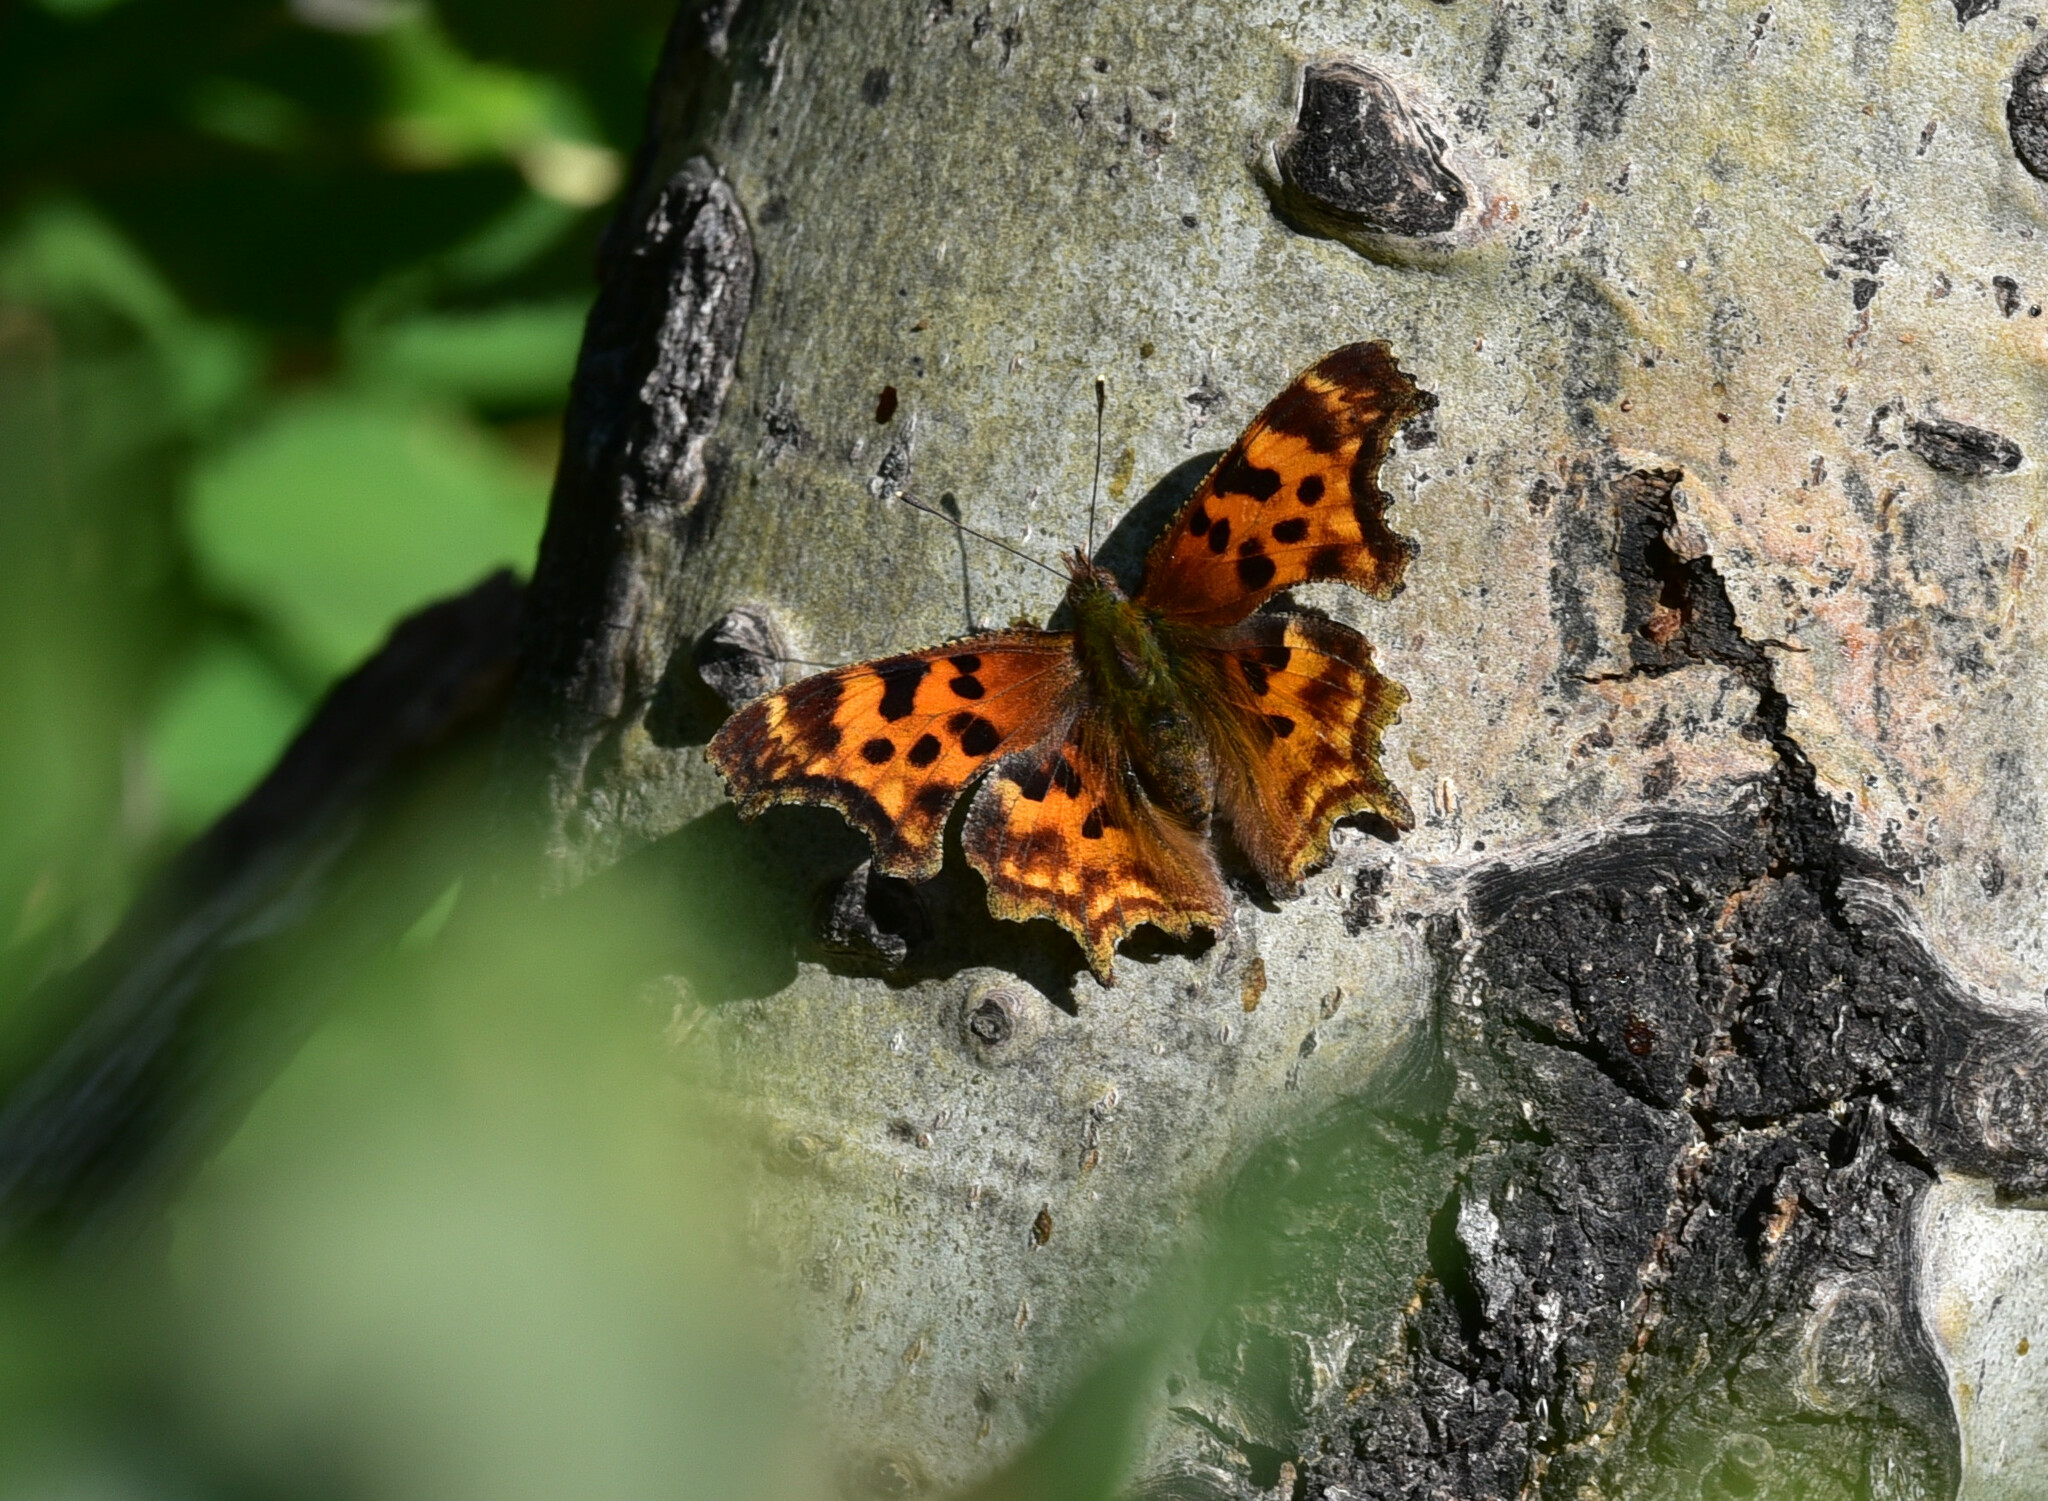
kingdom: Animalia
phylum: Arthropoda
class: Insecta
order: Lepidoptera
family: Nymphalidae
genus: Polygonia
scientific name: Polygonia satyrus
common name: Satyr angle wing
